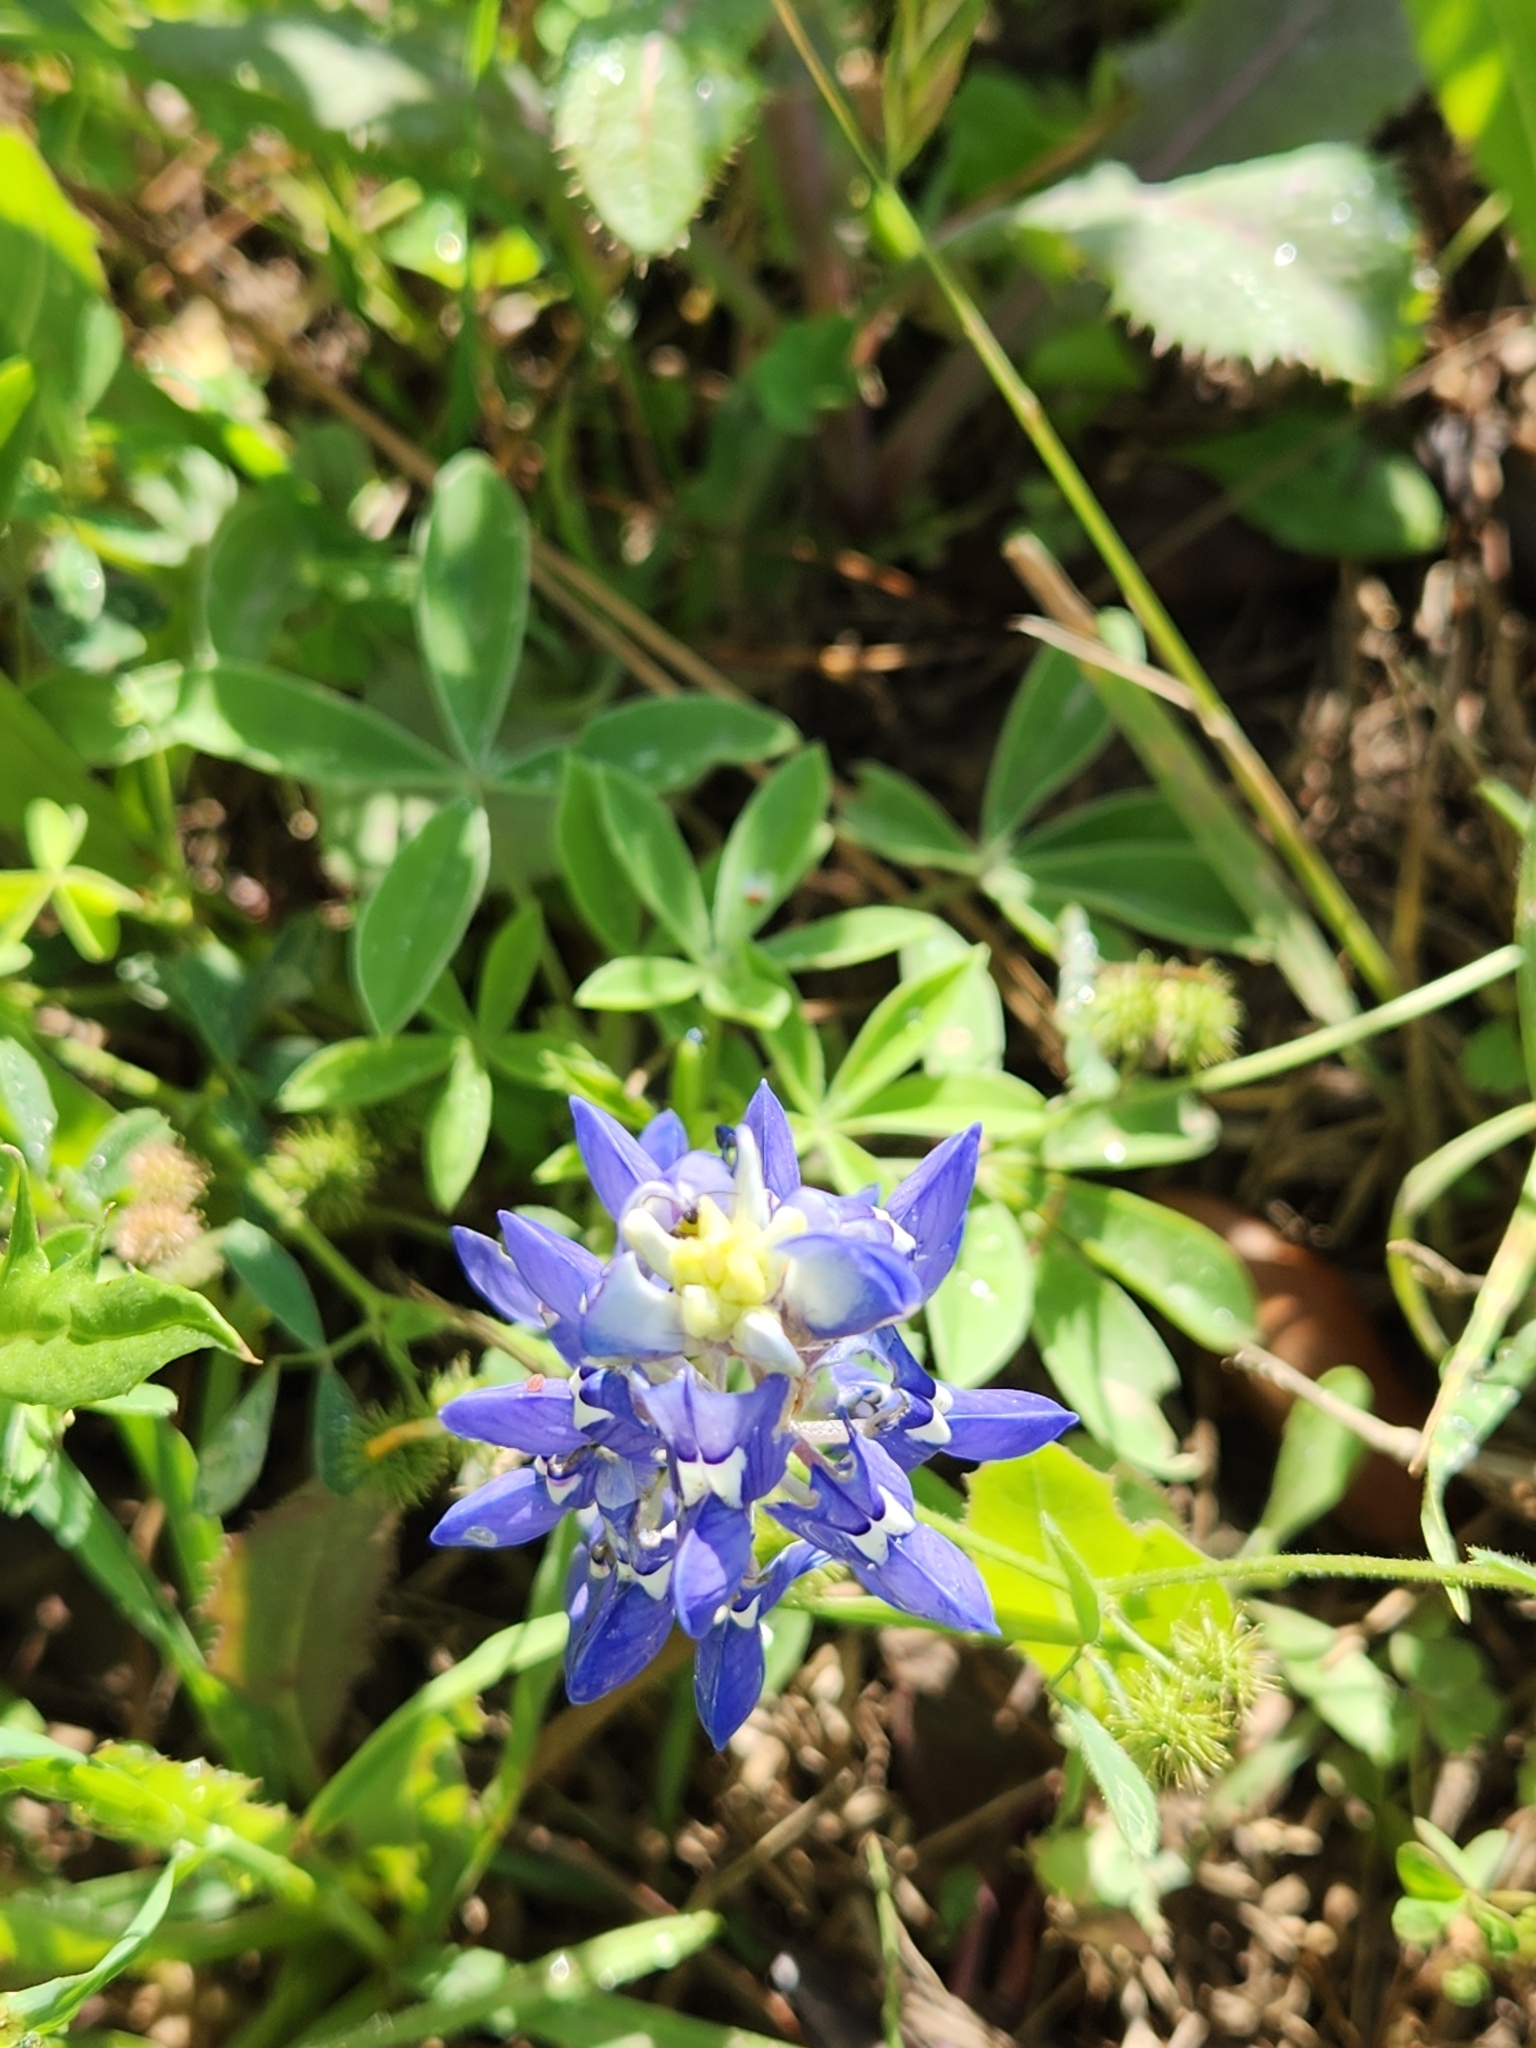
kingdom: Plantae
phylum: Tracheophyta
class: Magnoliopsida
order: Fabales
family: Fabaceae
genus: Lupinus
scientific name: Lupinus texensis
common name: Texas bluebonnet
